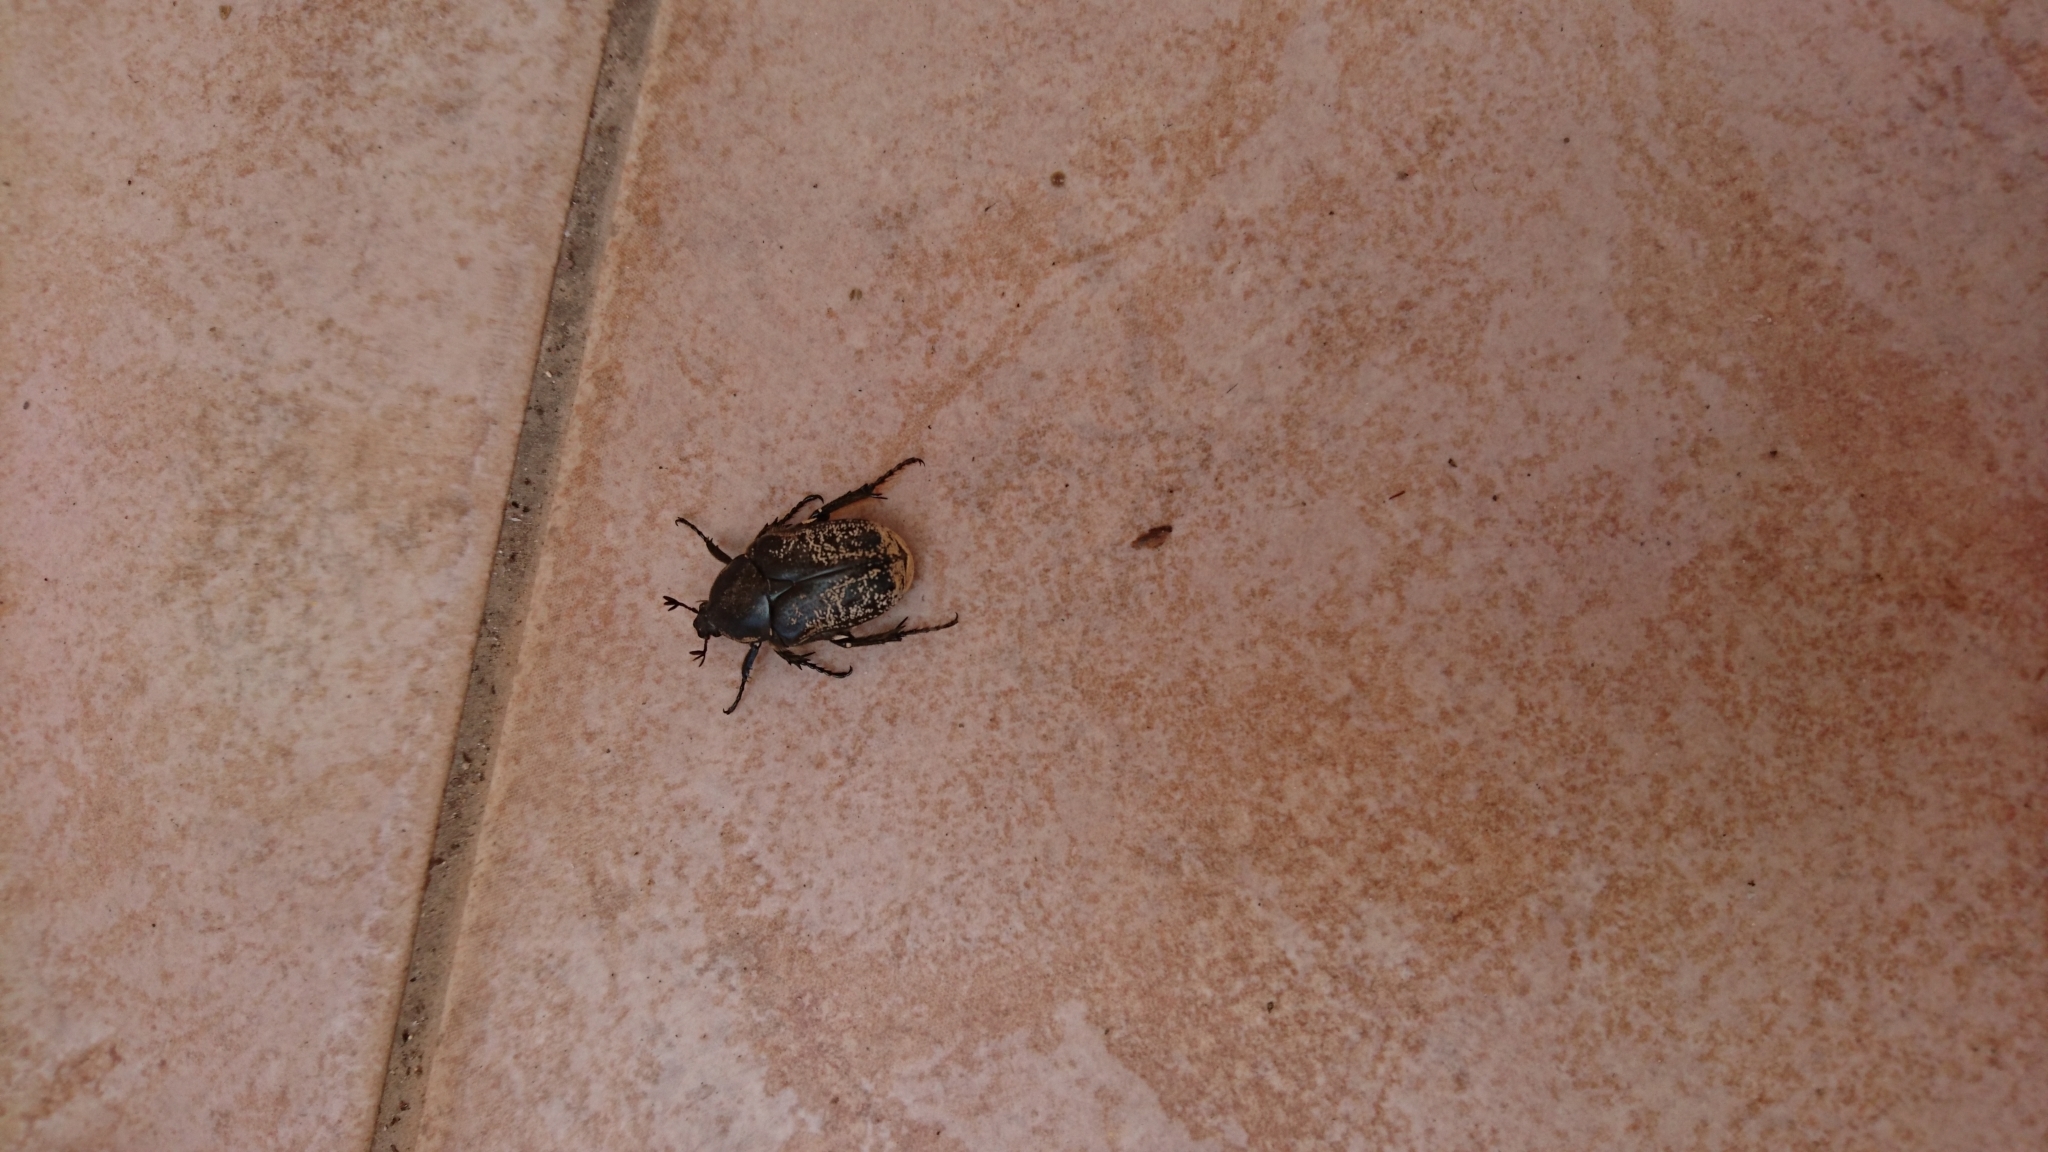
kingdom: Animalia
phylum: Arthropoda
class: Insecta
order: Coleoptera
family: Scarabaeidae
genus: Aethiessa
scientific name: Aethiessa floralis
